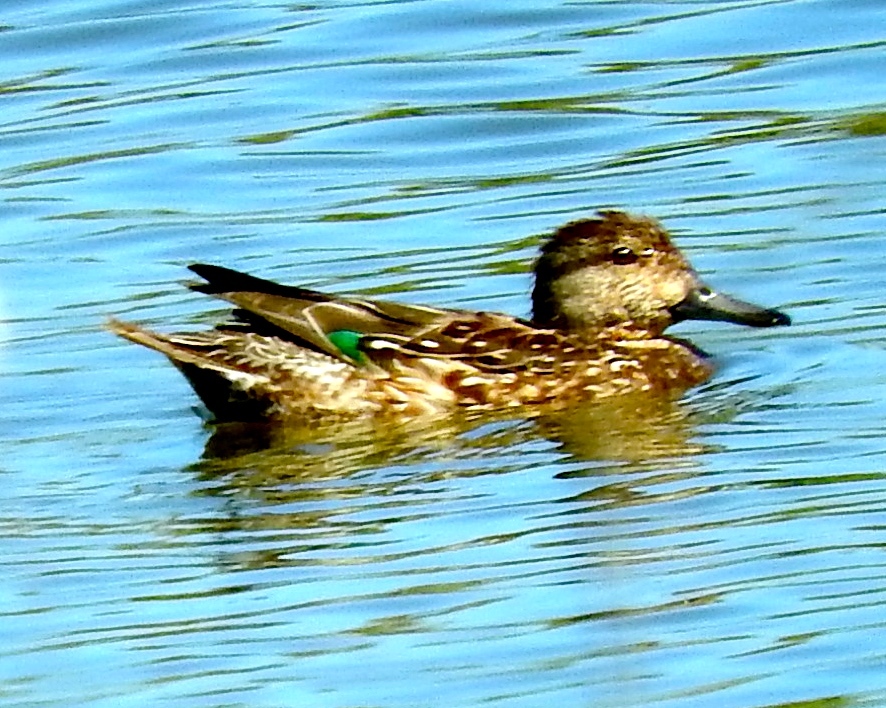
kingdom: Animalia
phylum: Chordata
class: Aves
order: Anseriformes
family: Anatidae
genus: Anas
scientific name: Anas carolinensis
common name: Green-winged teal
